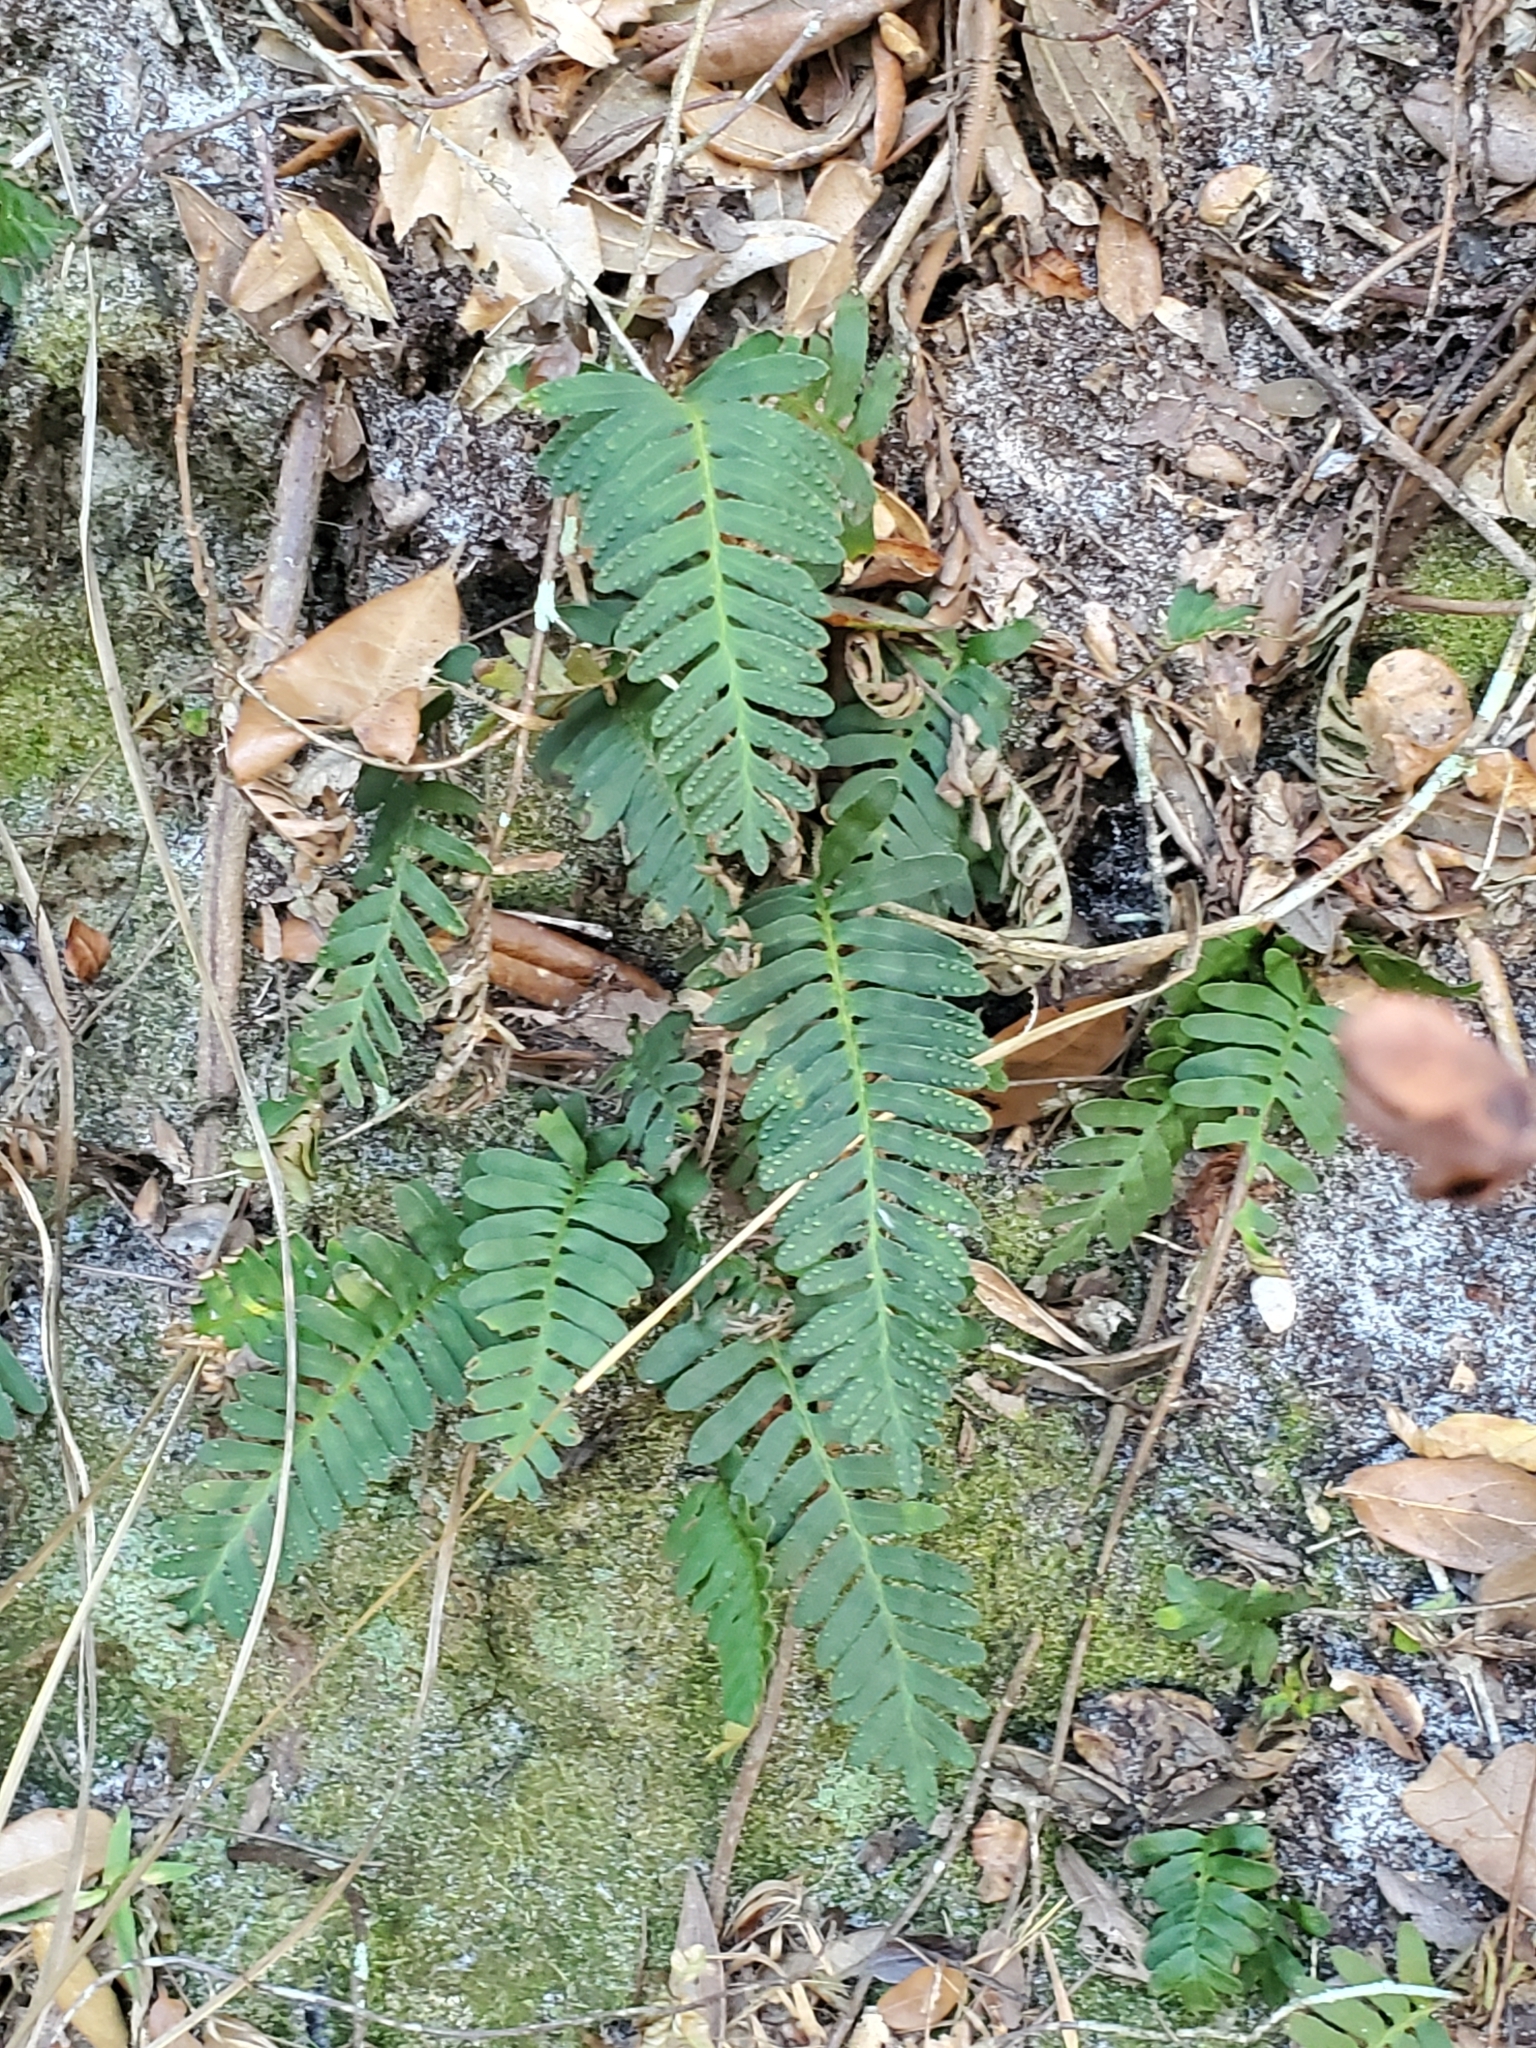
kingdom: Plantae
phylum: Tracheophyta
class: Polypodiopsida
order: Polypodiales
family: Polypodiaceae
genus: Pleopeltis
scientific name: Pleopeltis michauxiana
